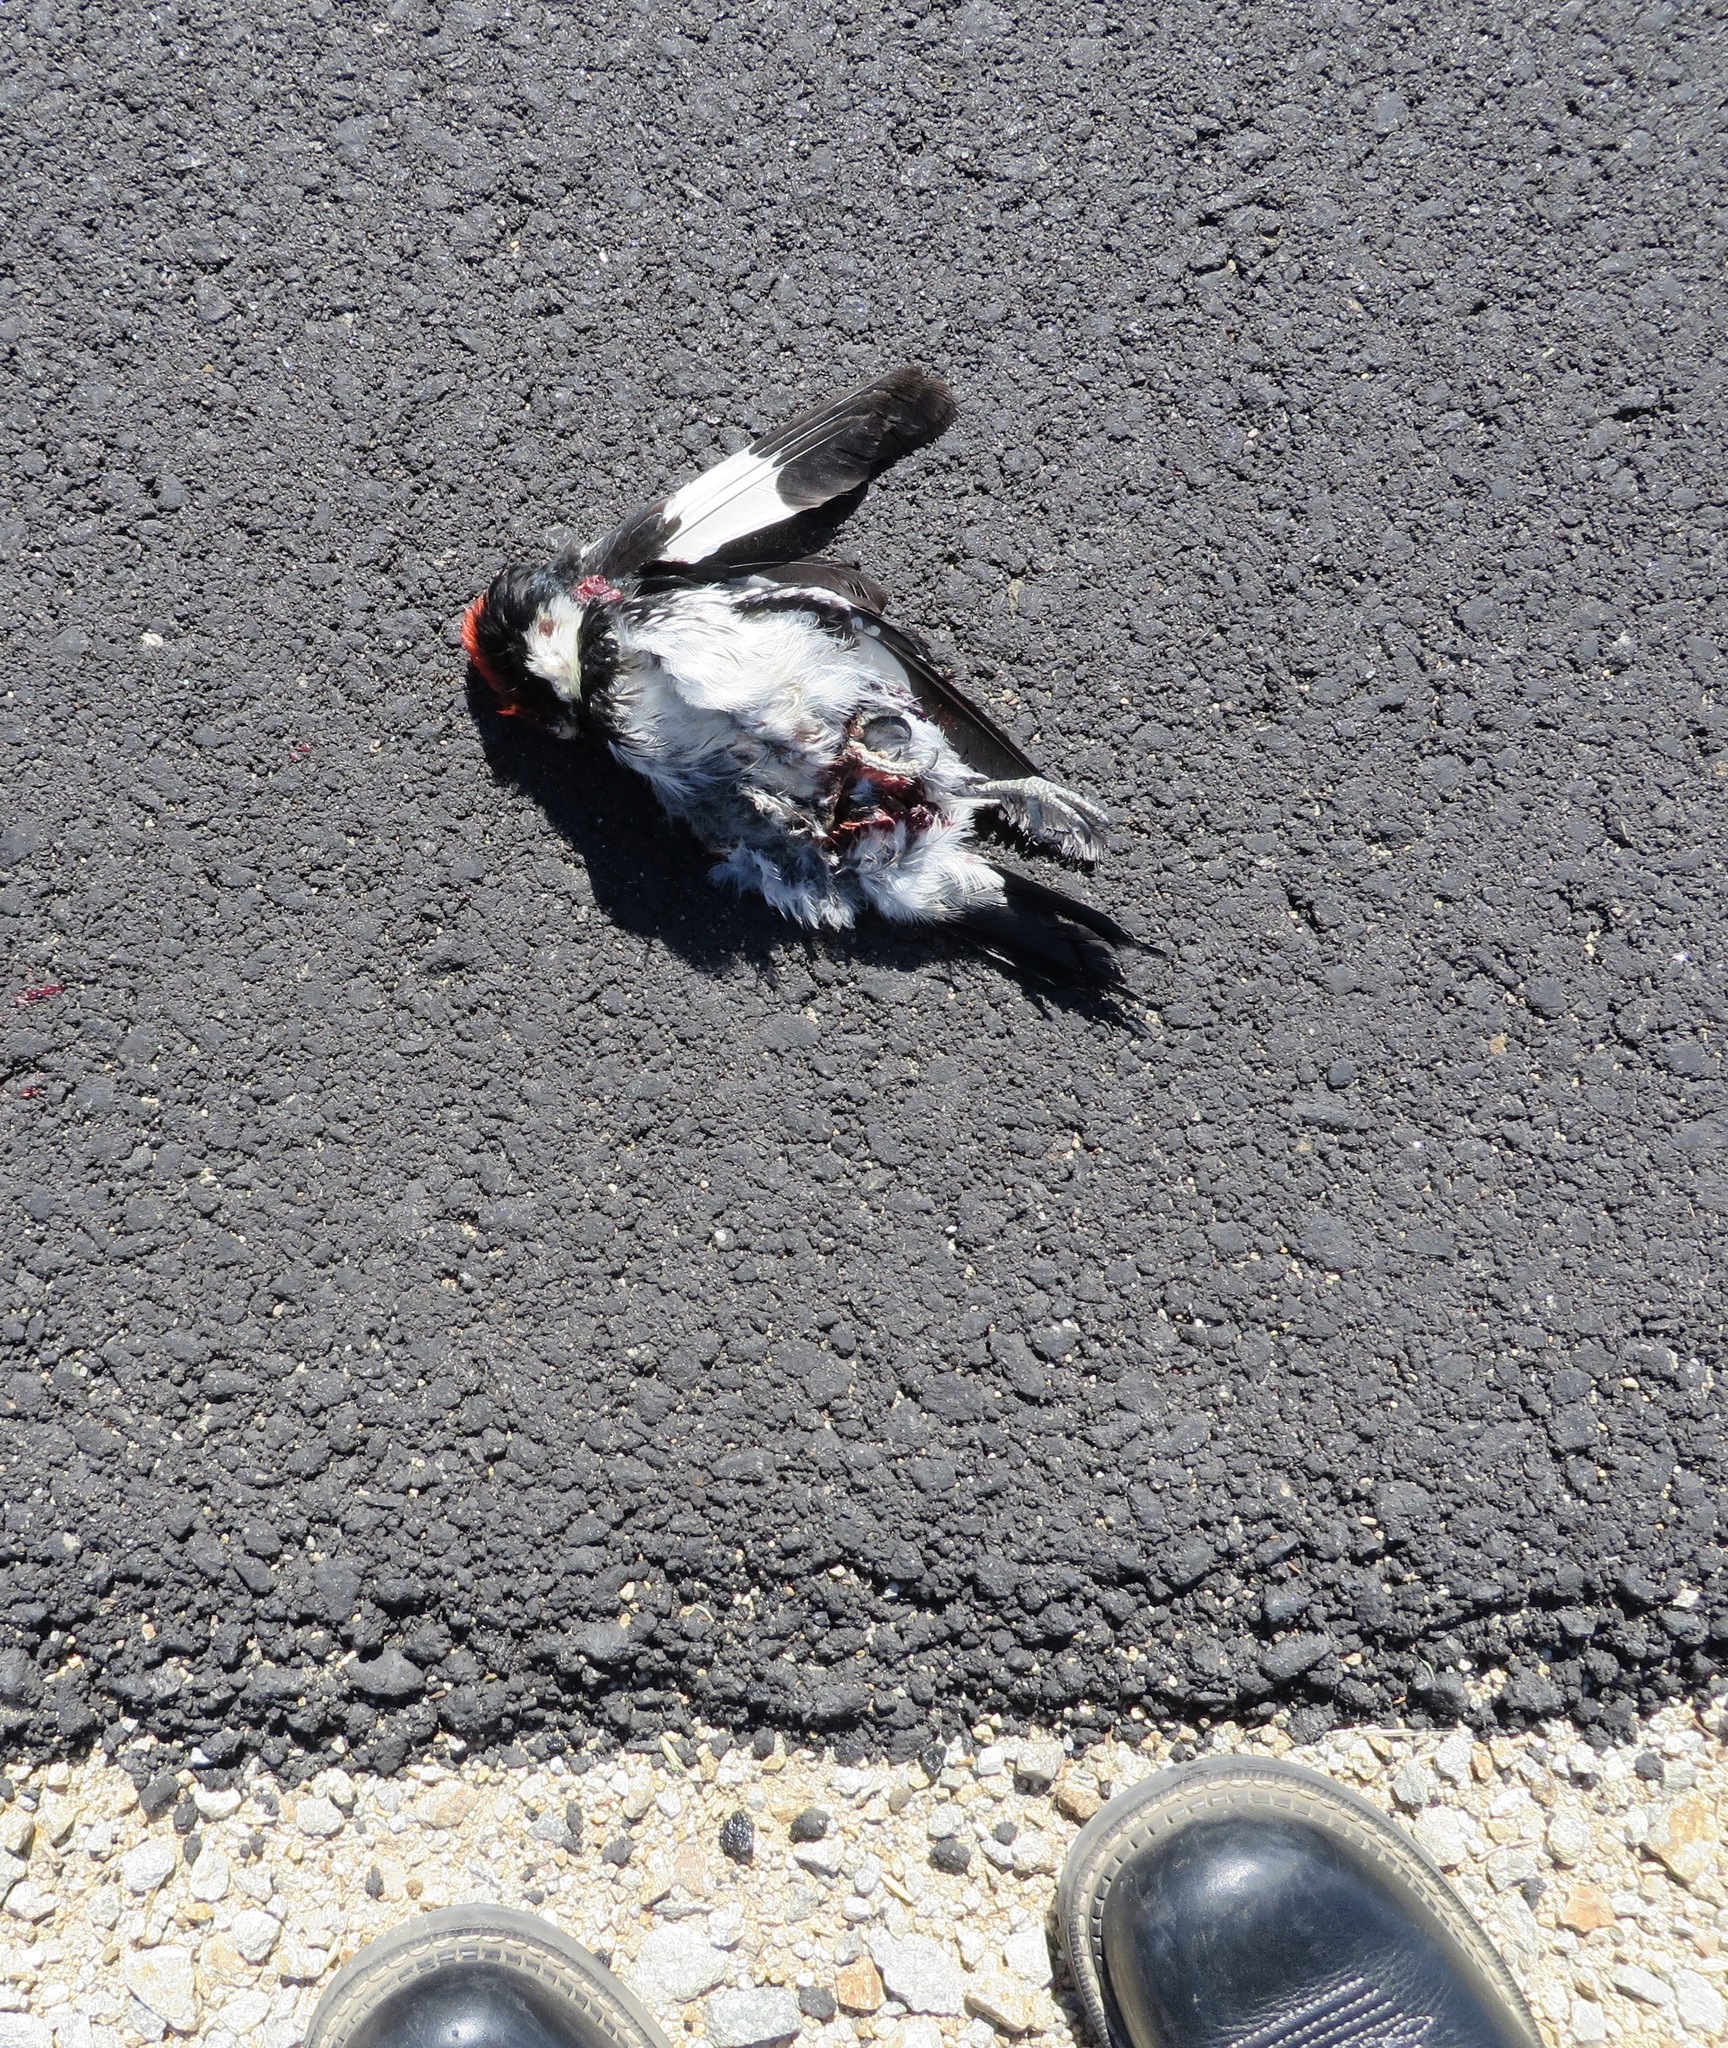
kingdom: Animalia
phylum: Chordata
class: Aves
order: Piciformes
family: Picidae
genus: Melanerpes
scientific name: Melanerpes formicivorus
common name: Acorn woodpecker
